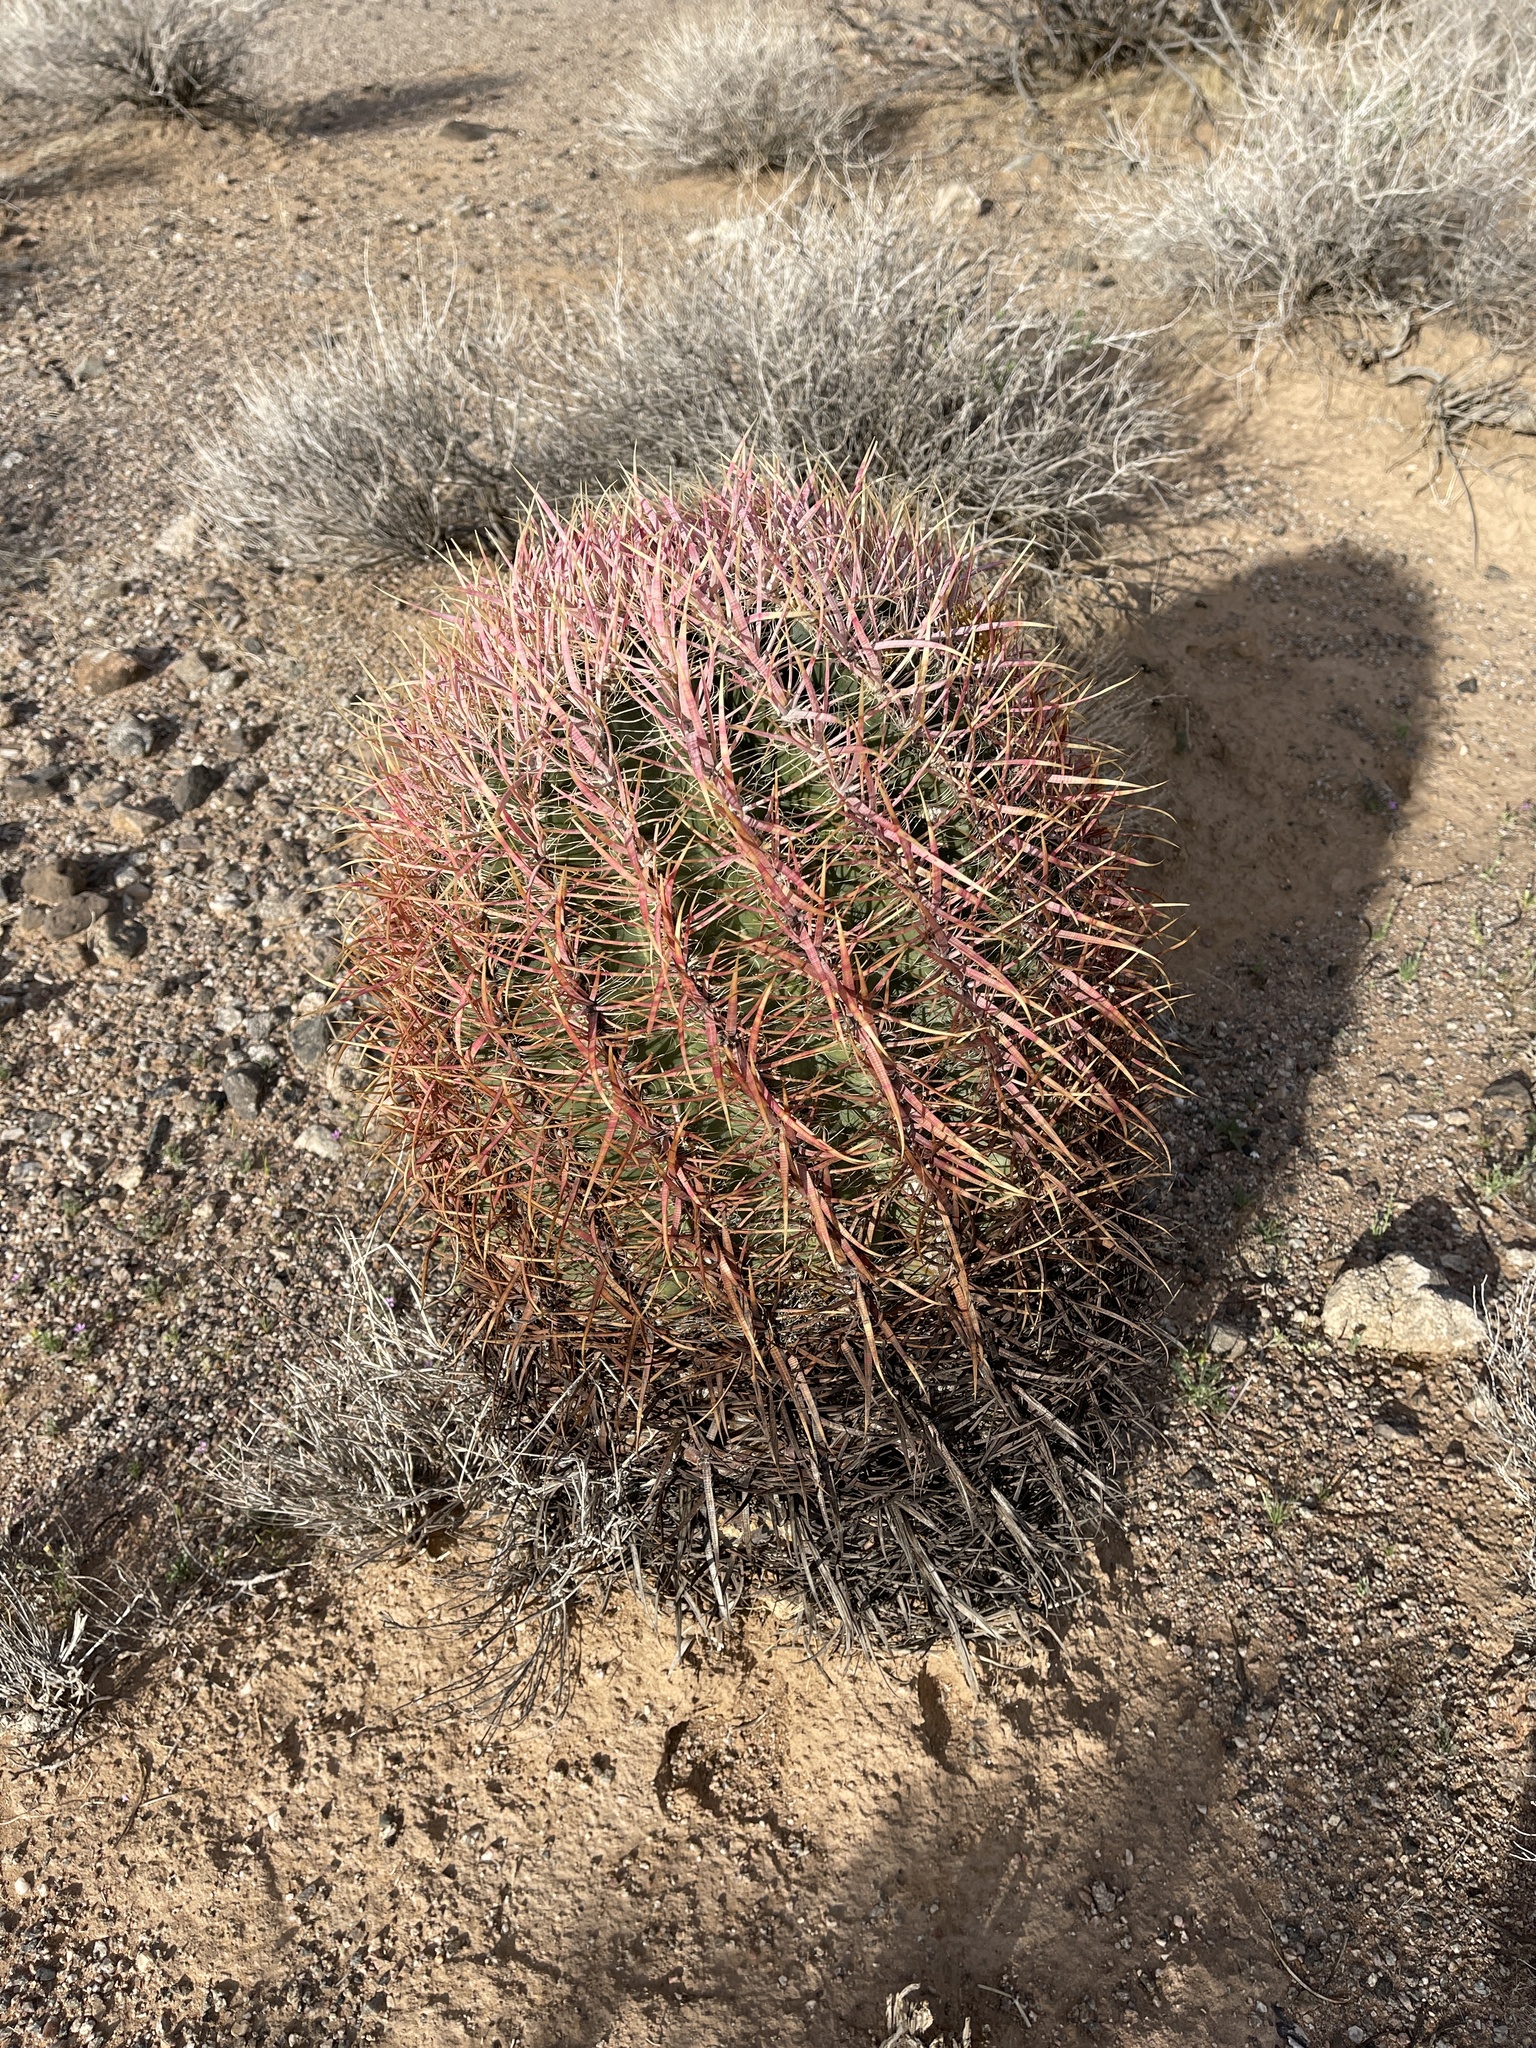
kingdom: Plantae
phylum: Tracheophyta
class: Magnoliopsida
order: Caryophyllales
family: Cactaceae
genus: Ferocactus
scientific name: Ferocactus cylindraceus
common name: California barrel cactus
